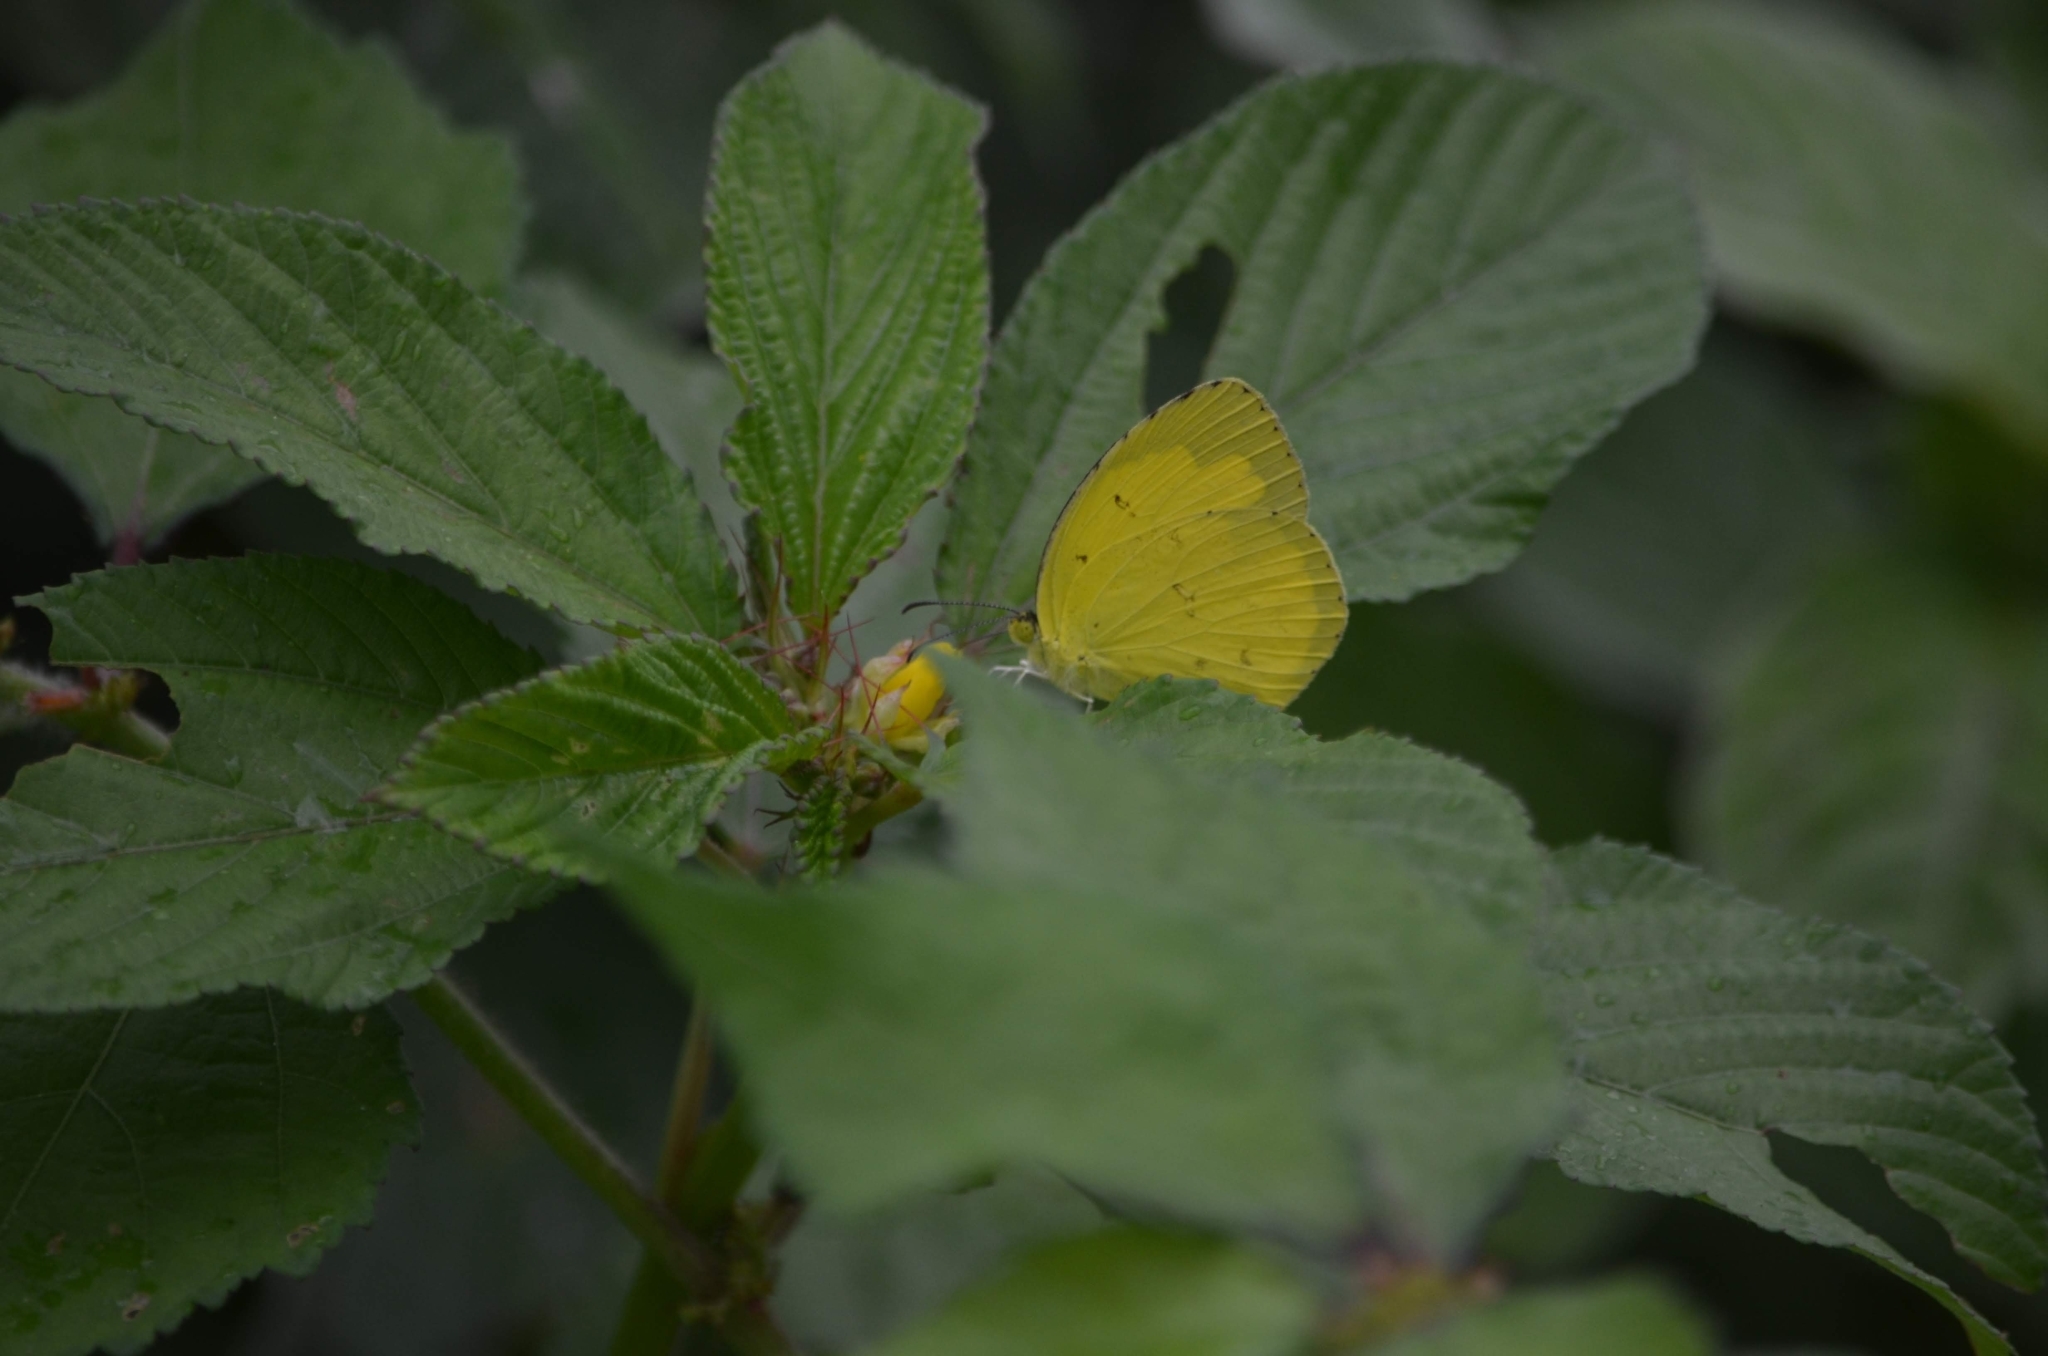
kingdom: Animalia
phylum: Arthropoda
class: Insecta
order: Lepidoptera
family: Pieridae
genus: Eurema
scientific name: Eurema hecabe
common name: Pale grass yellow
